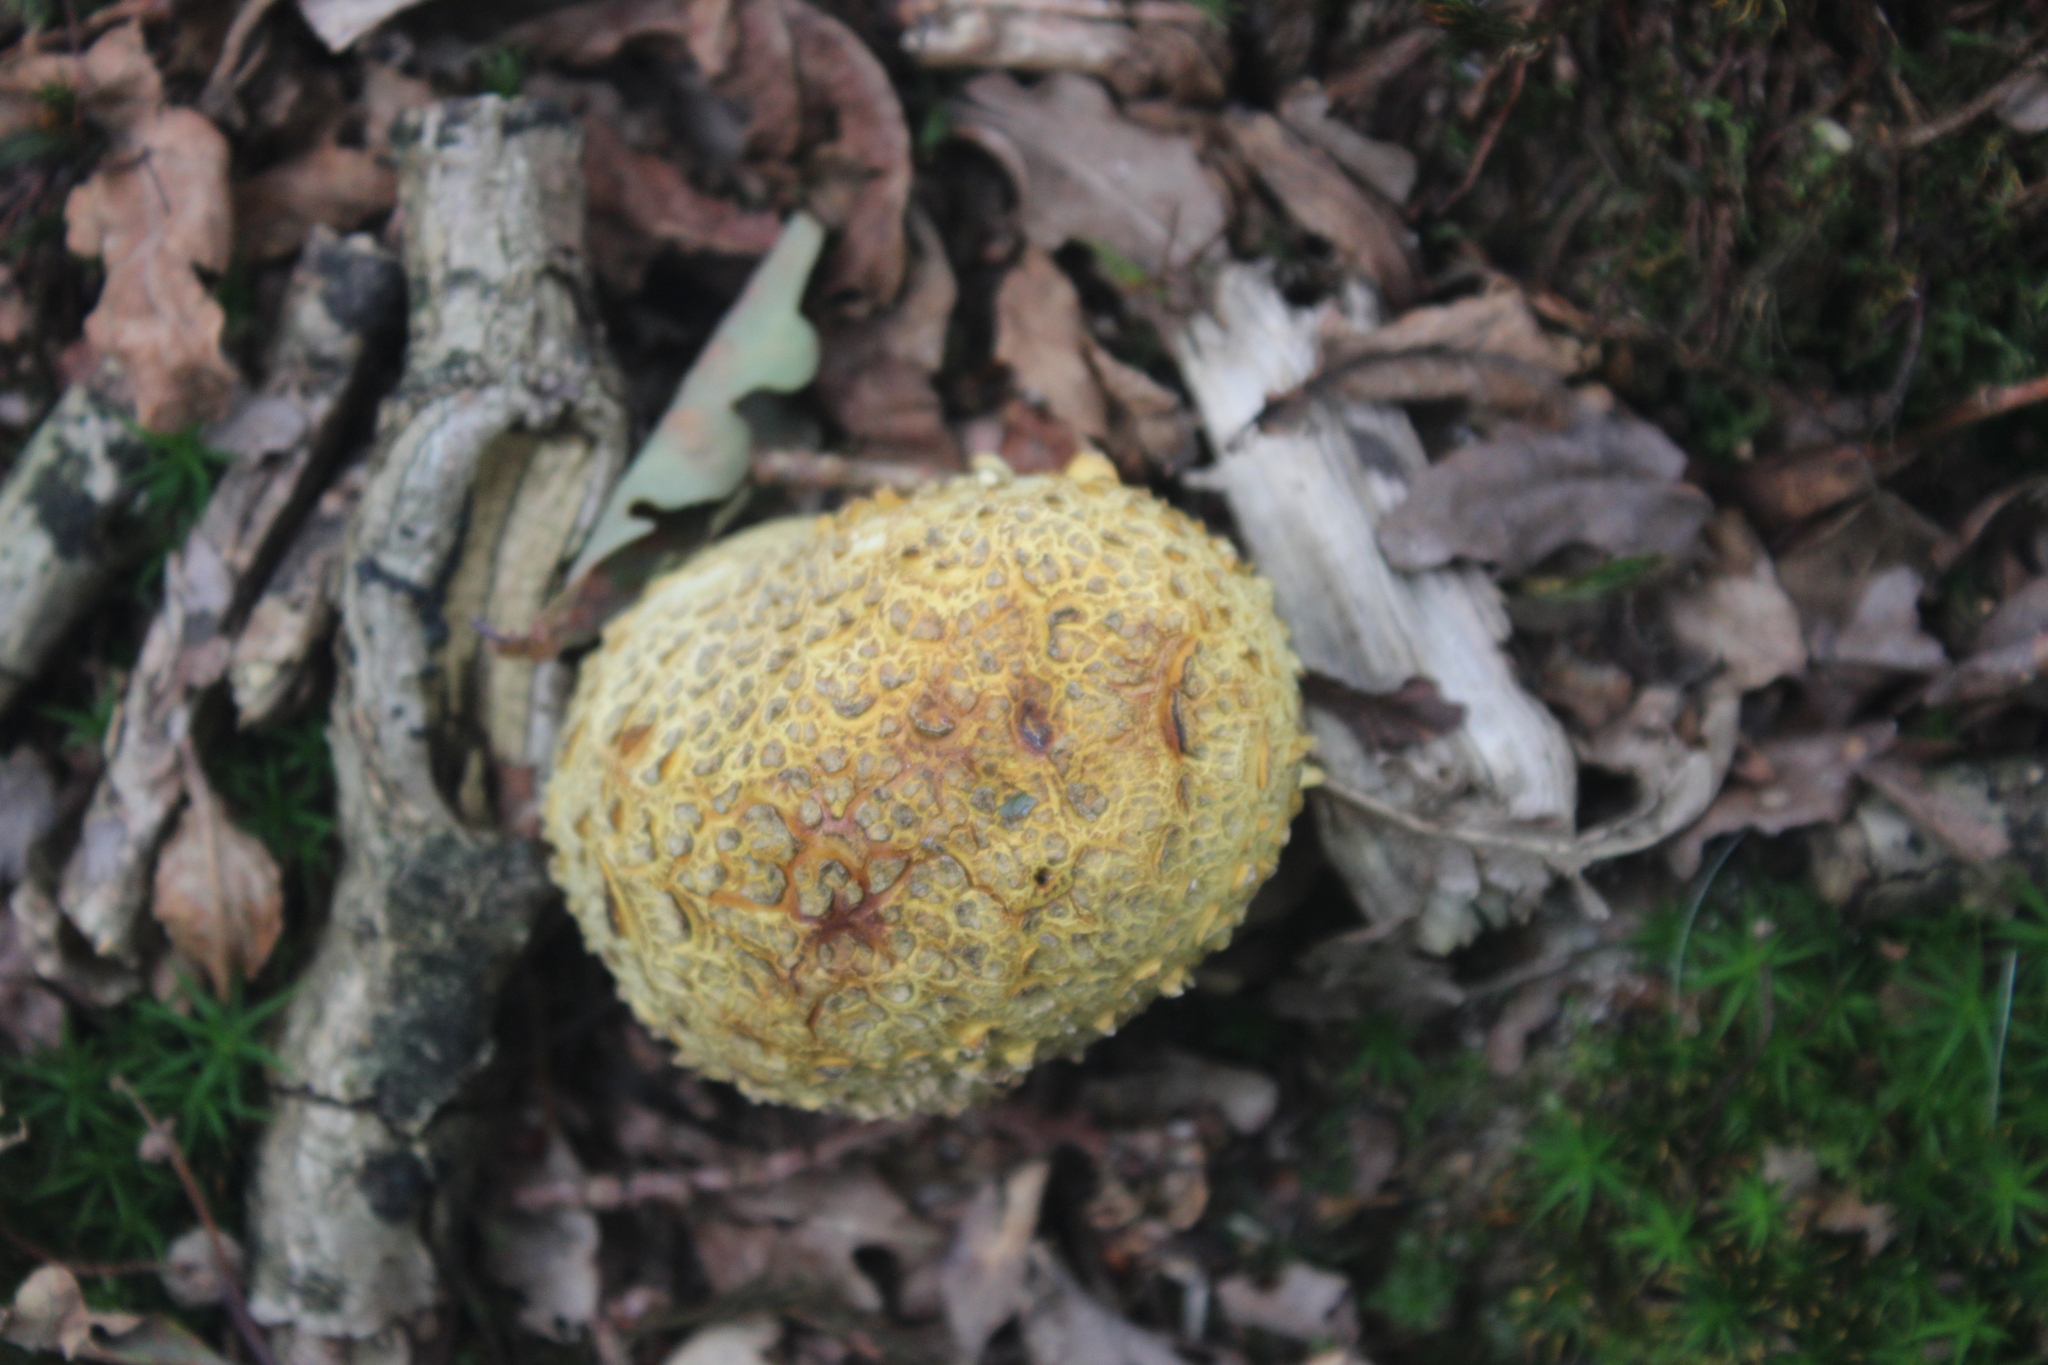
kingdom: Fungi
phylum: Basidiomycota
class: Agaricomycetes
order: Boletales
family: Sclerodermataceae
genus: Scleroderma
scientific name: Scleroderma citrinum
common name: Common earthball
